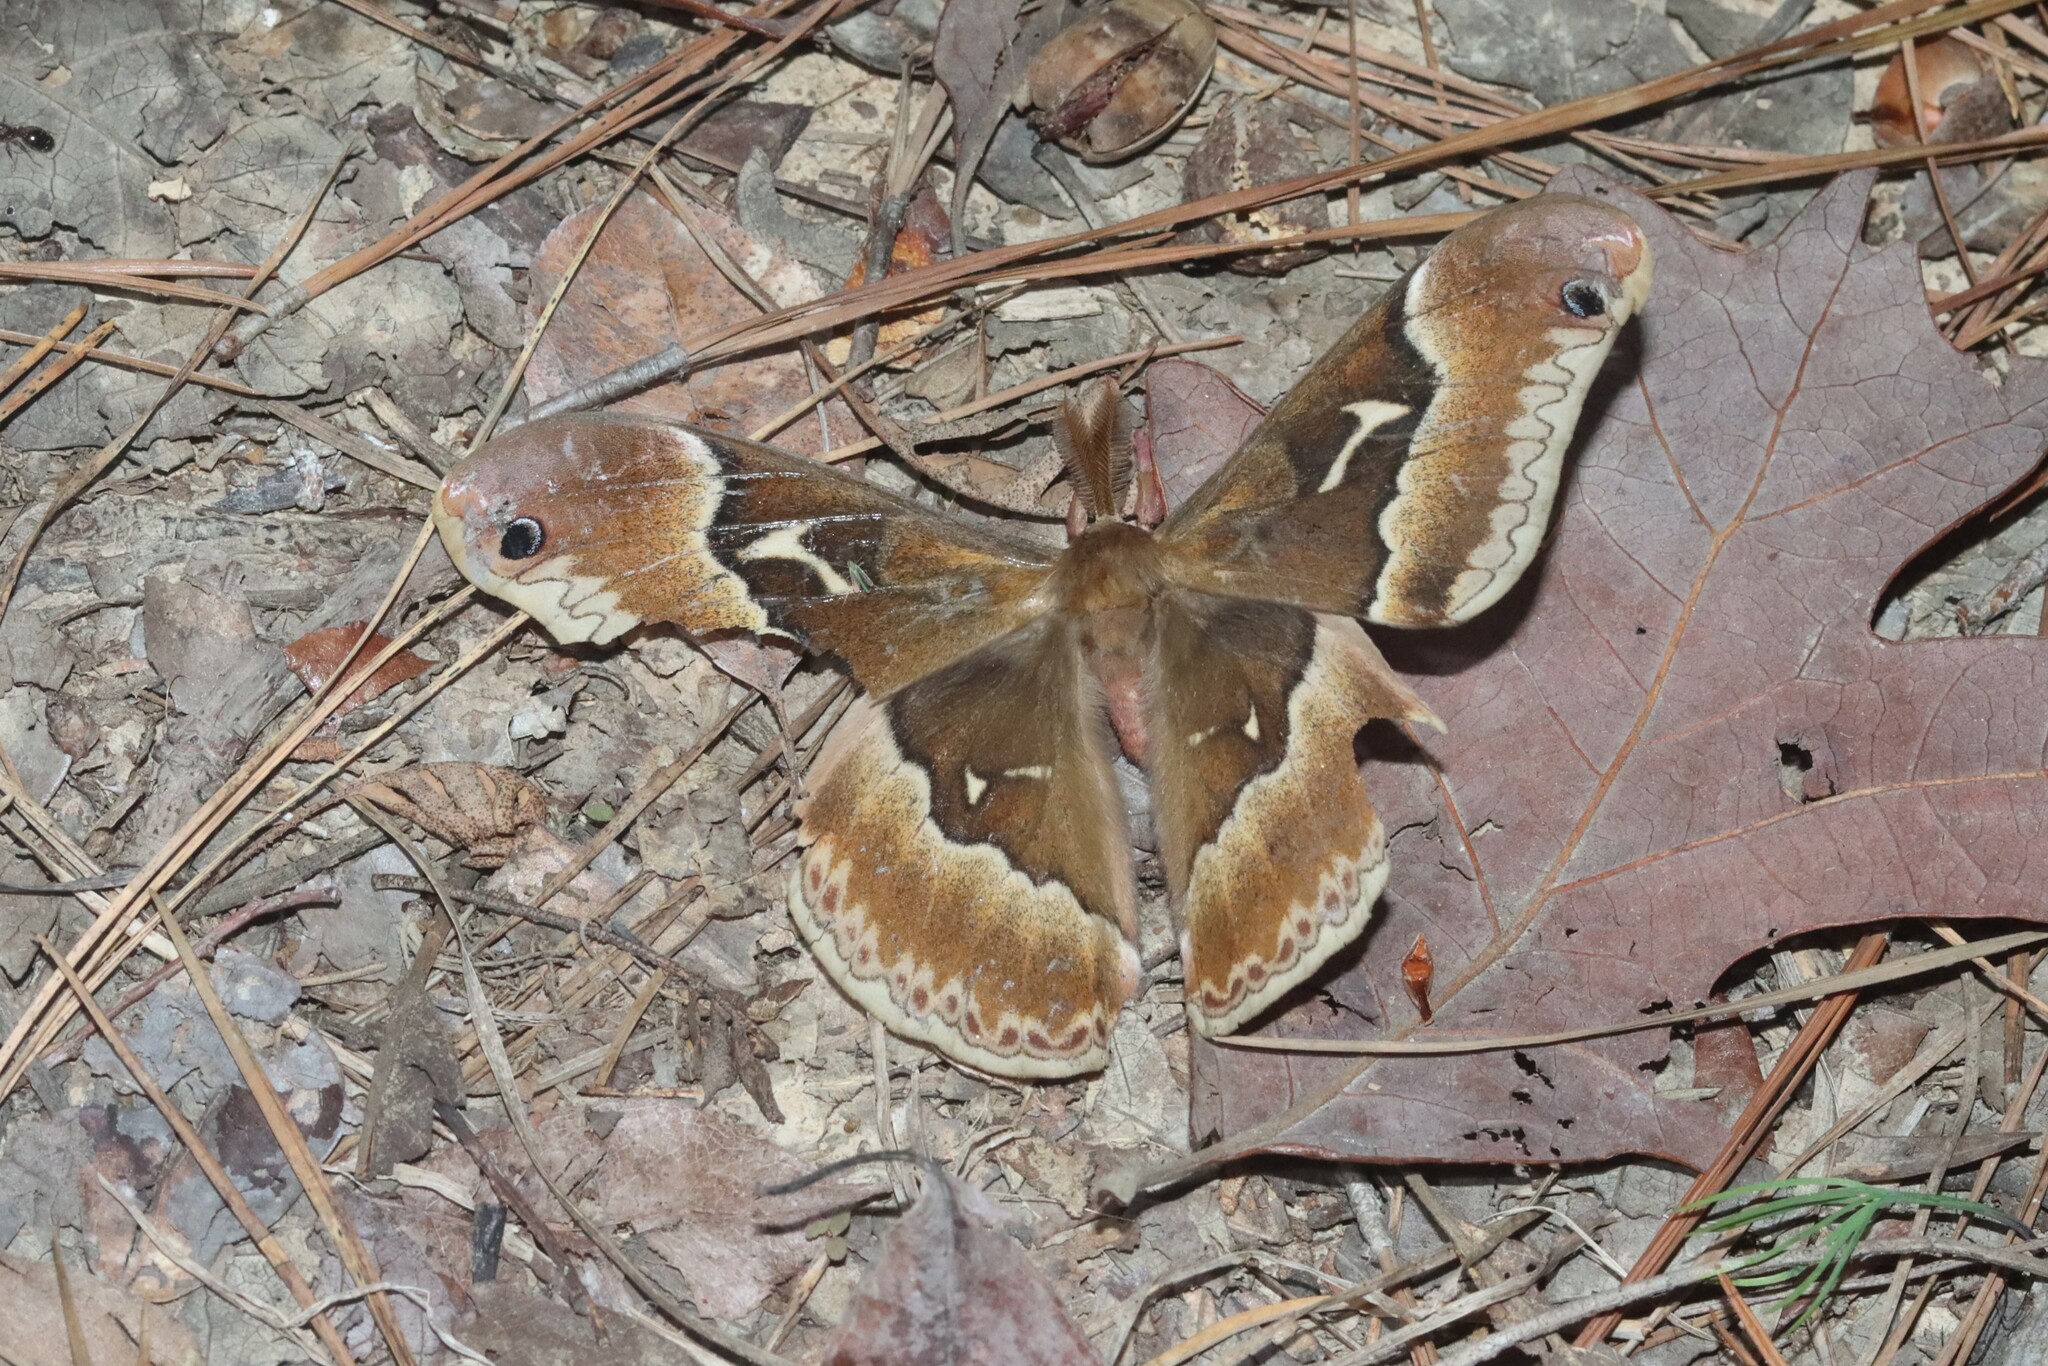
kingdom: Animalia
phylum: Arthropoda
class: Insecta
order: Lepidoptera
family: Saturniidae
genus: Callosamia
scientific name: Callosamia angulifera
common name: Tulip tree silkmoth
